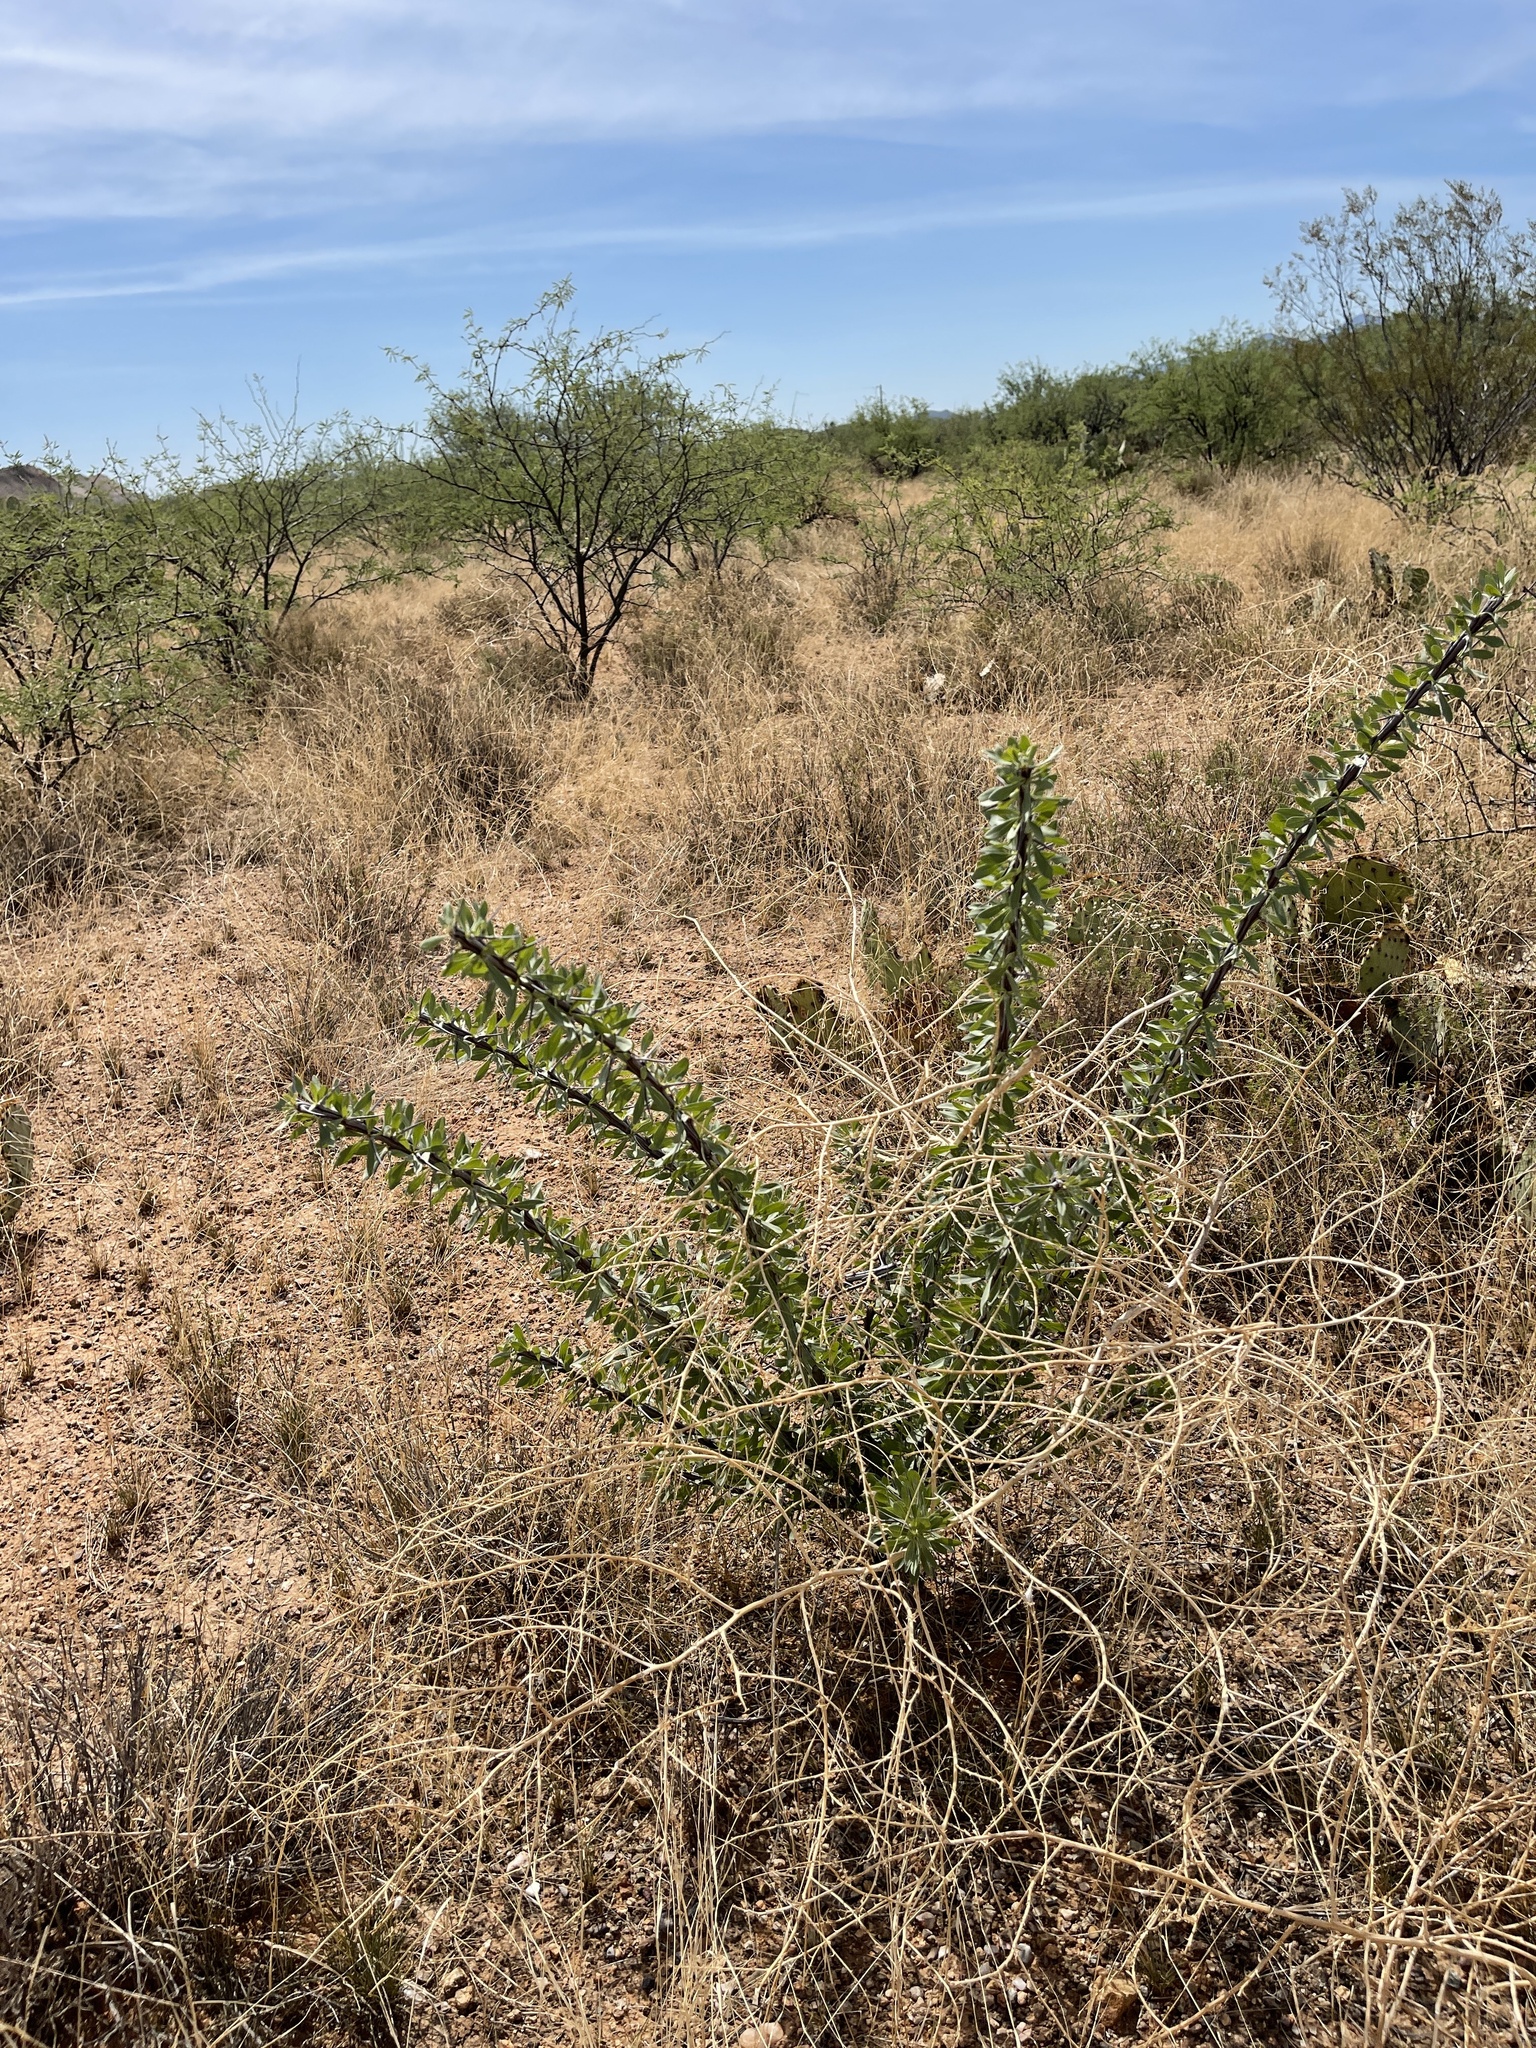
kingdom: Plantae
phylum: Tracheophyta
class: Magnoliopsida
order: Ericales
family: Fouquieriaceae
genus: Fouquieria
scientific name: Fouquieria splendens
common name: Vine-cactus
